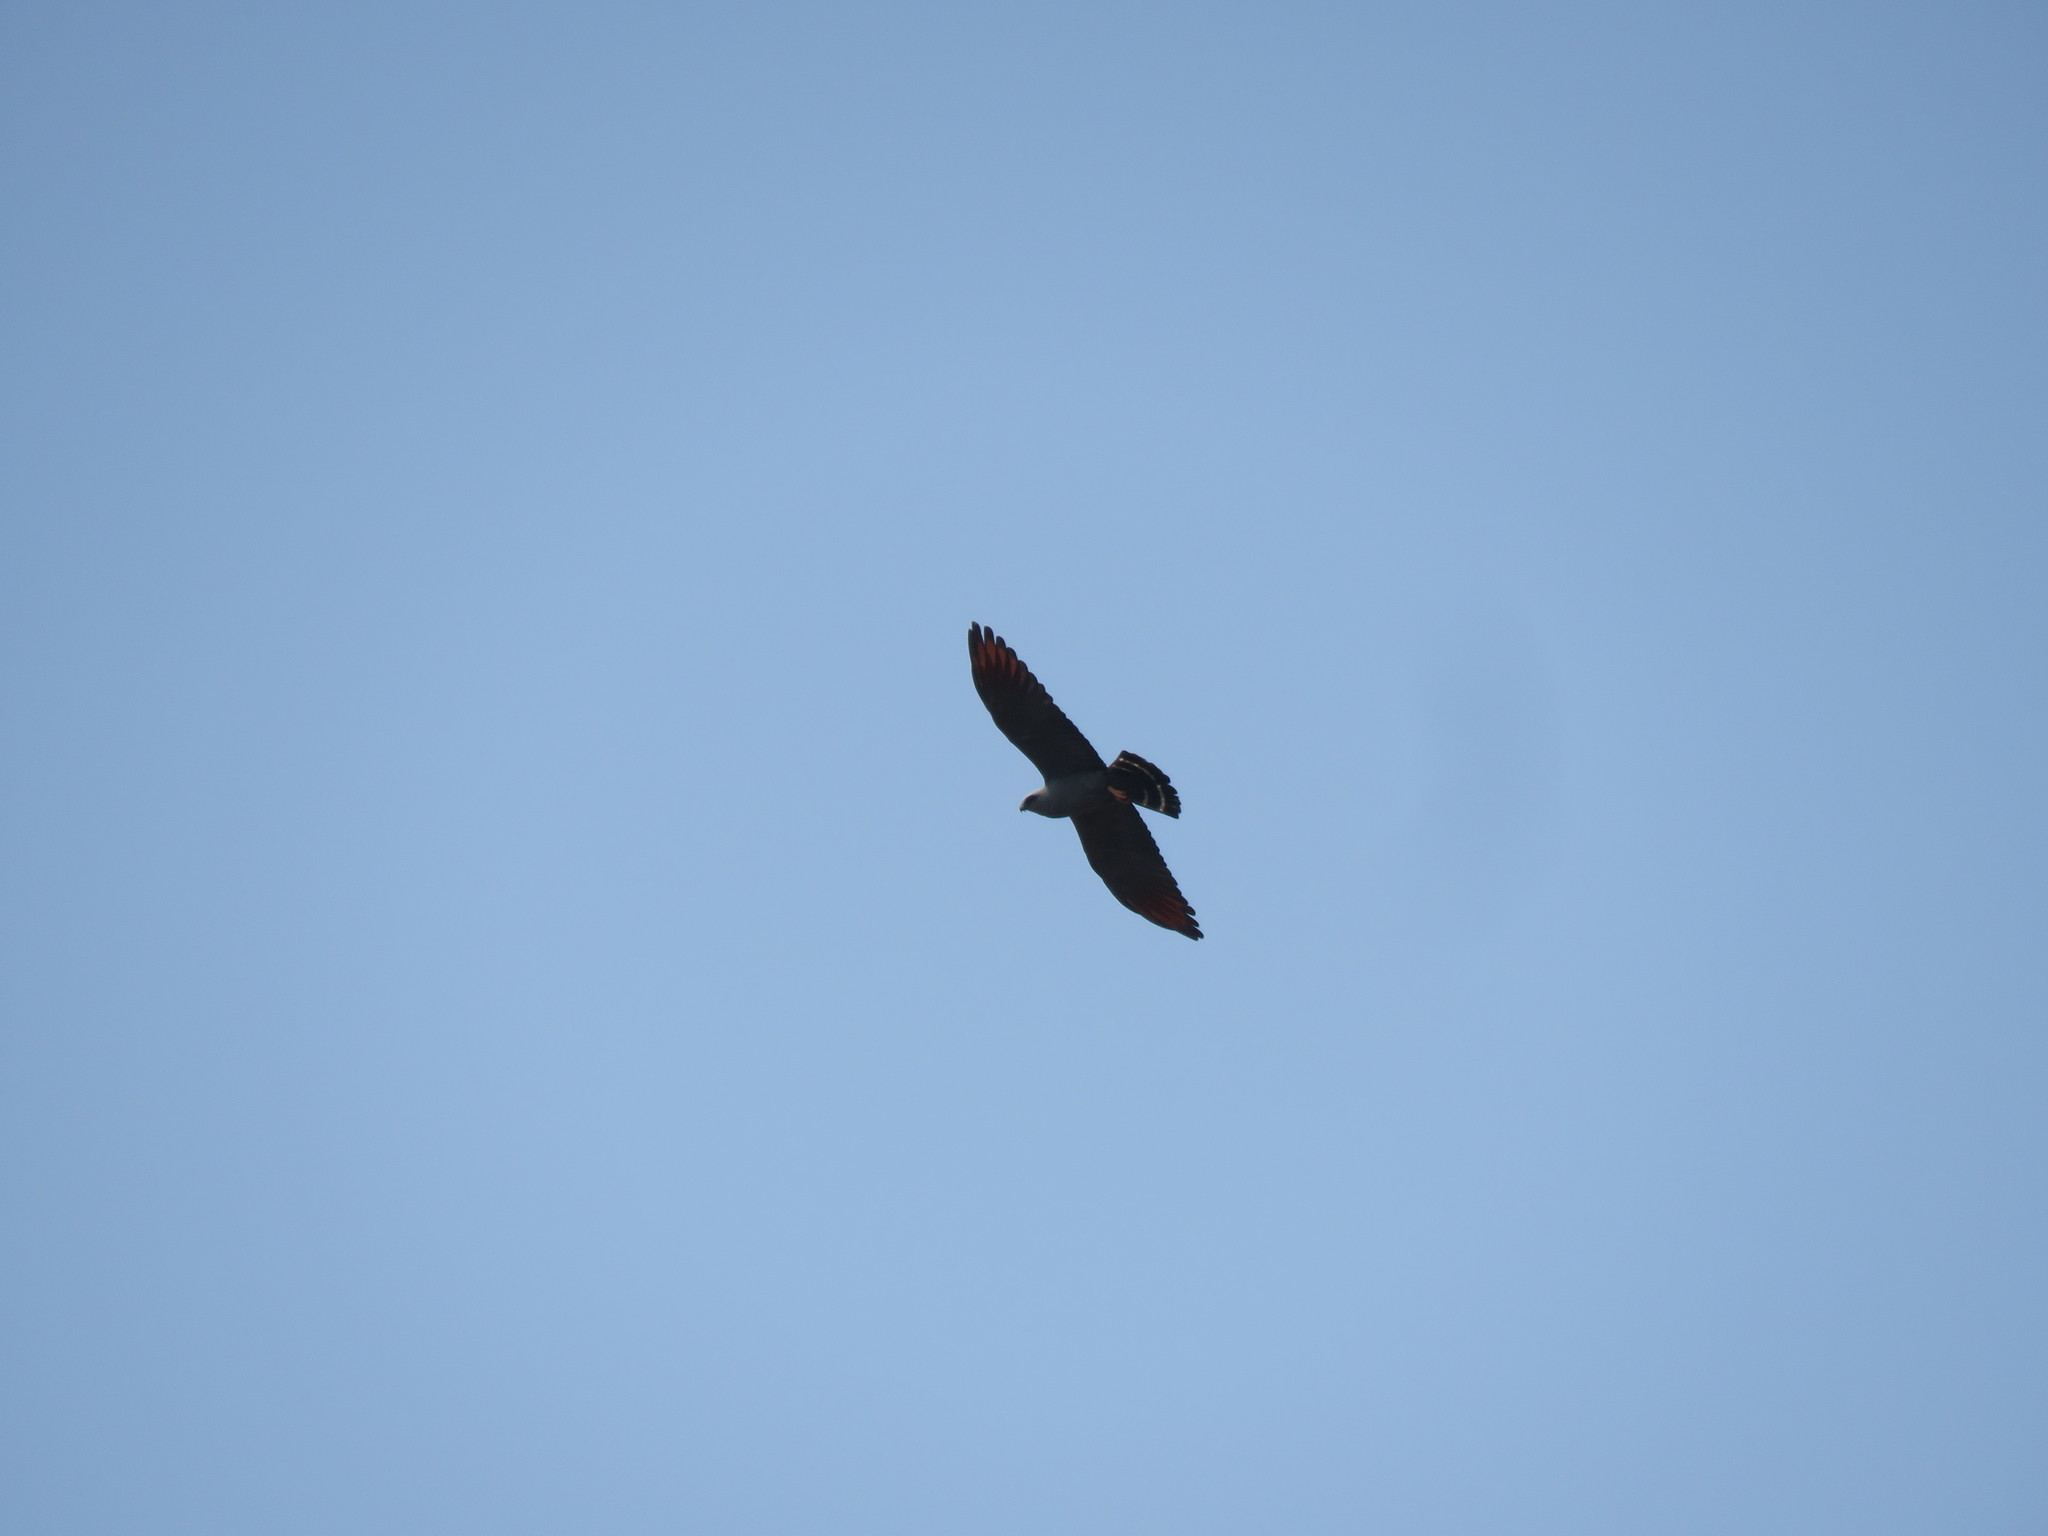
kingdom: Animalia
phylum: Chordata
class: Aves
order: Accipitriformes
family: Accipitridae
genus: Ictinia
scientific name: Ictinia plumbea
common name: Plumbeous kite
